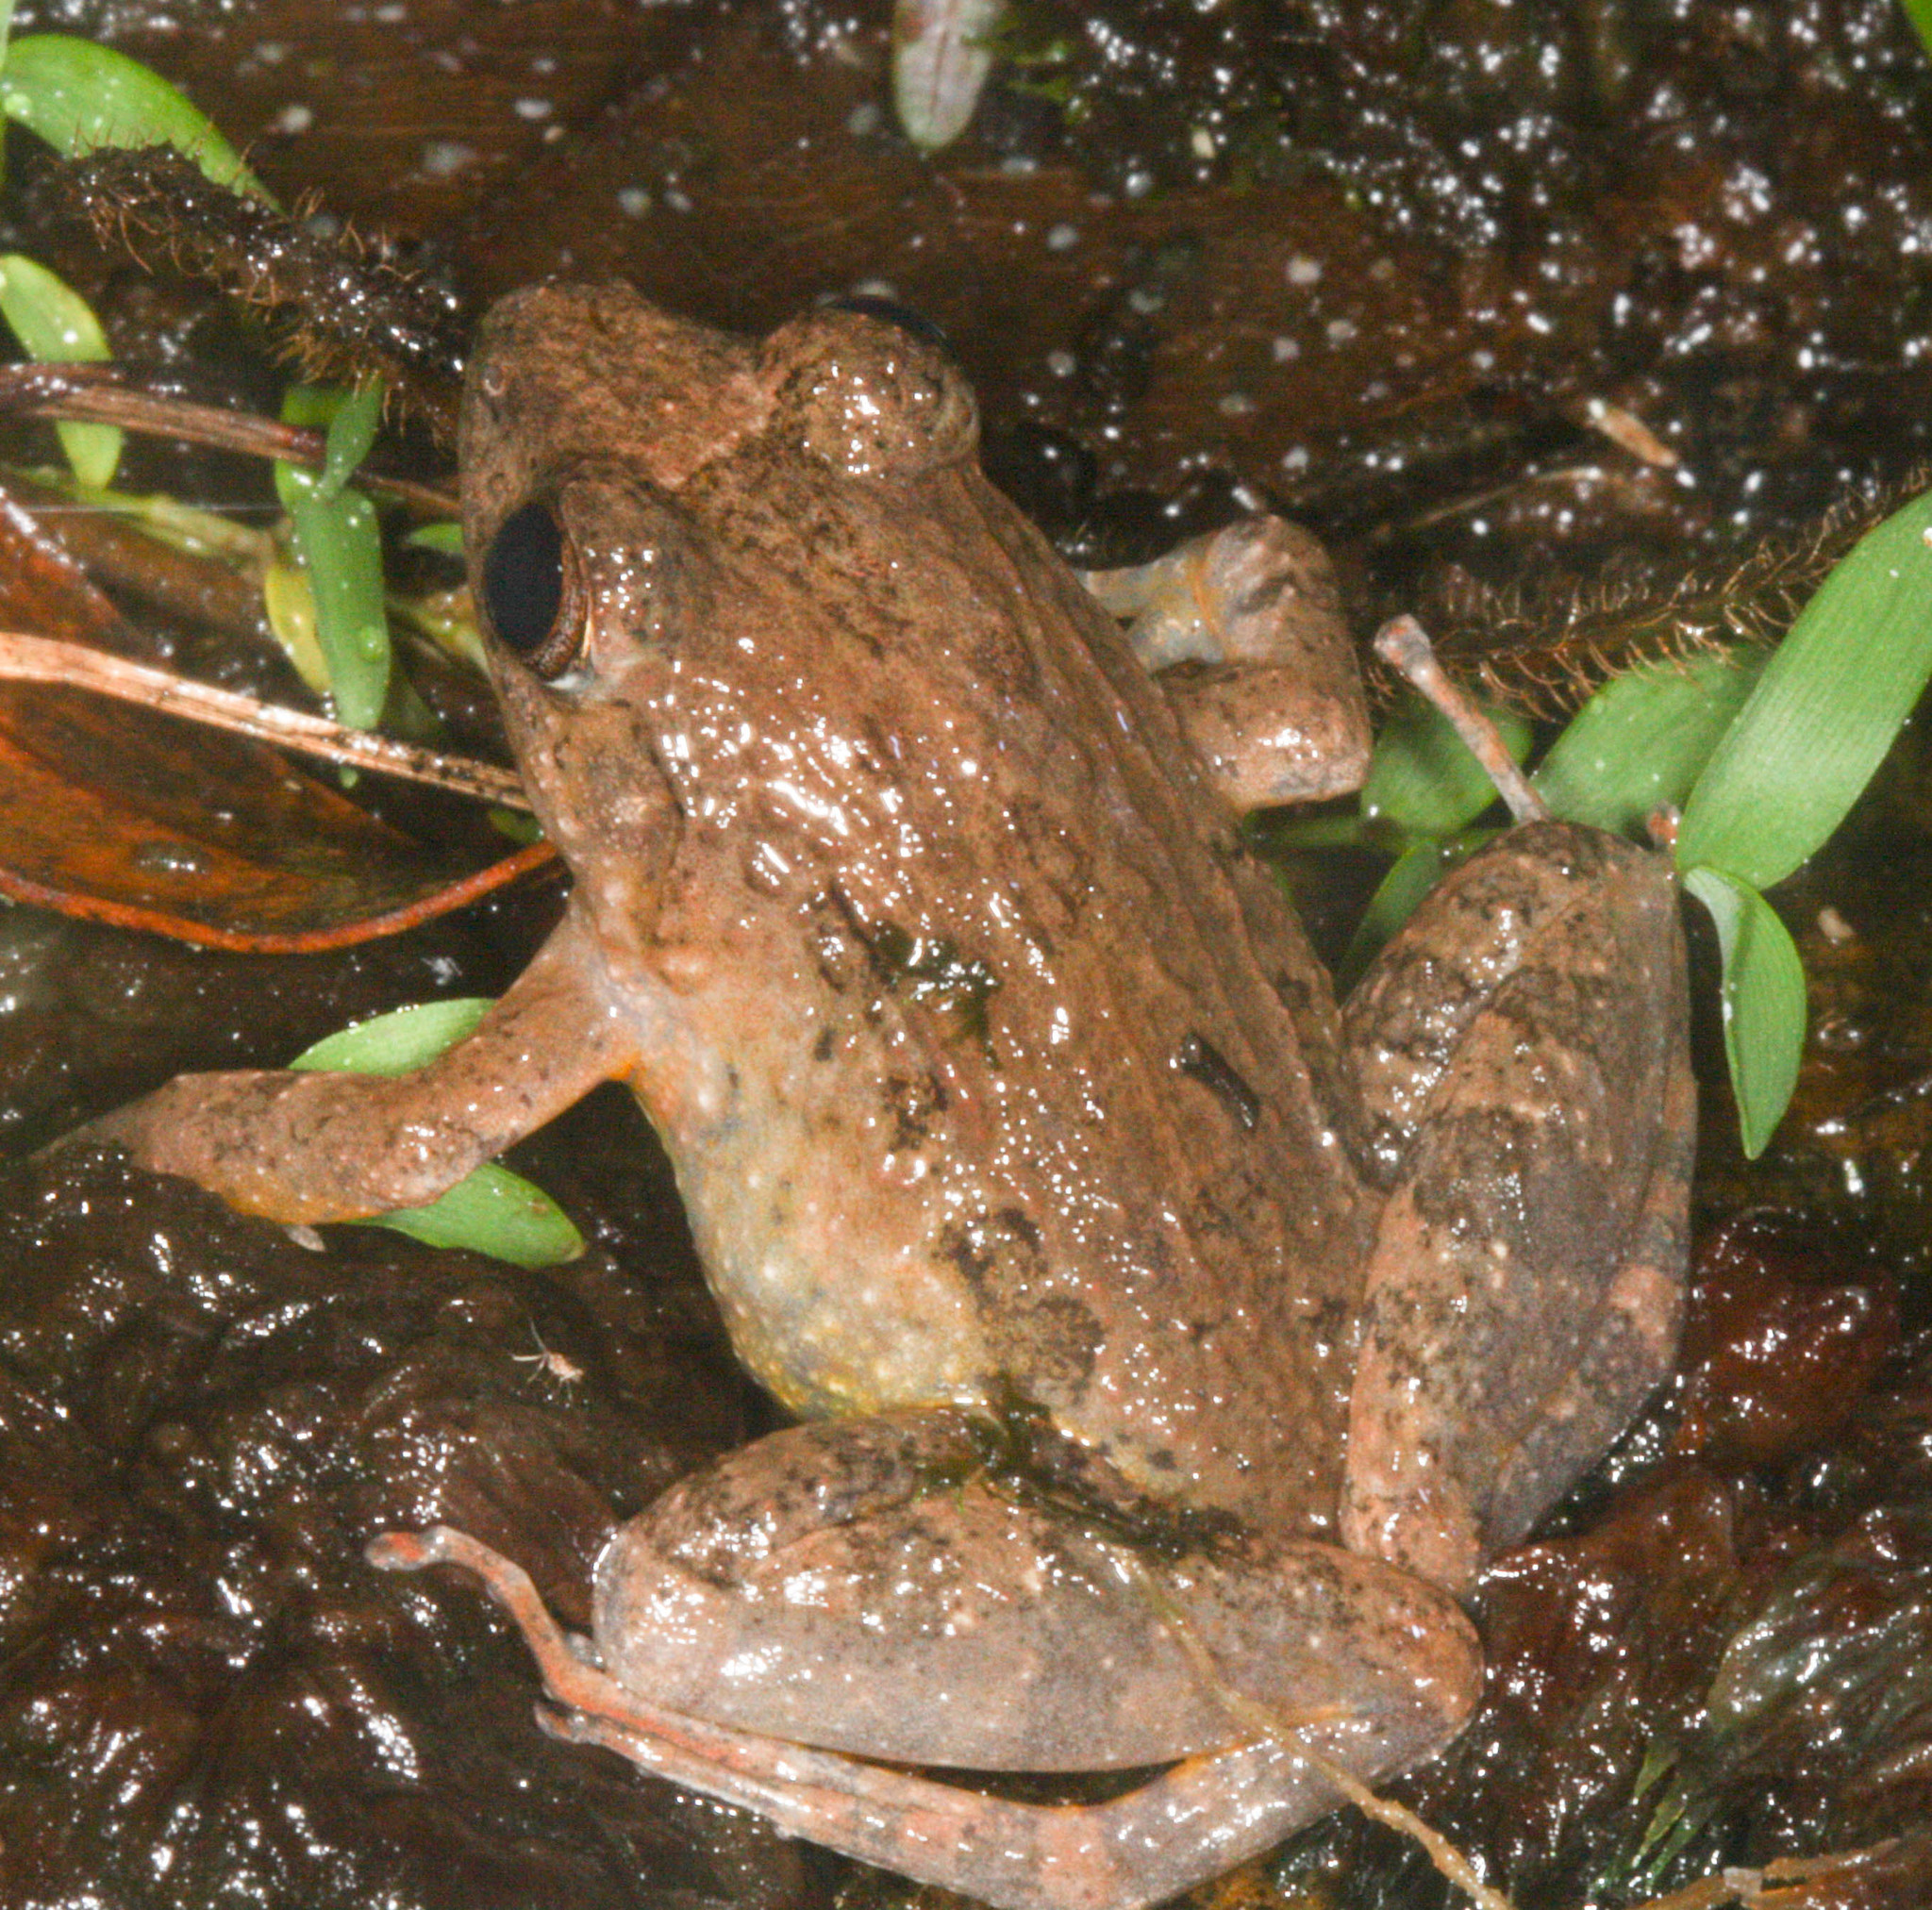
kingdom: Animalia
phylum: Chordata
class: Amphibia
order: Anura
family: Mantellidae
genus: Mantidactylus
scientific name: Mantidactylus betsileanus
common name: Betsileo madagascar frog
